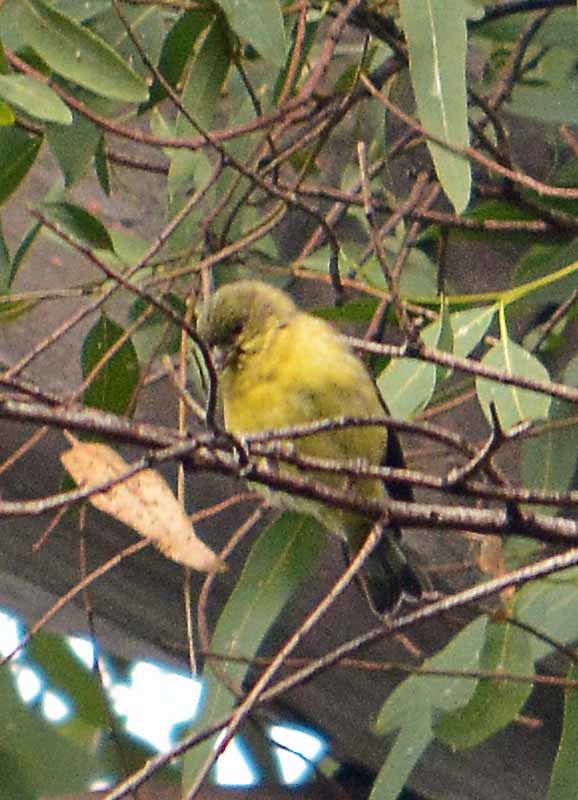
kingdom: Animalia
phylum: Chordata
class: Aves
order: Passeriformes
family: Fringillidae
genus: Spinus
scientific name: Spinus psaltria
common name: Lesser goldfinch
